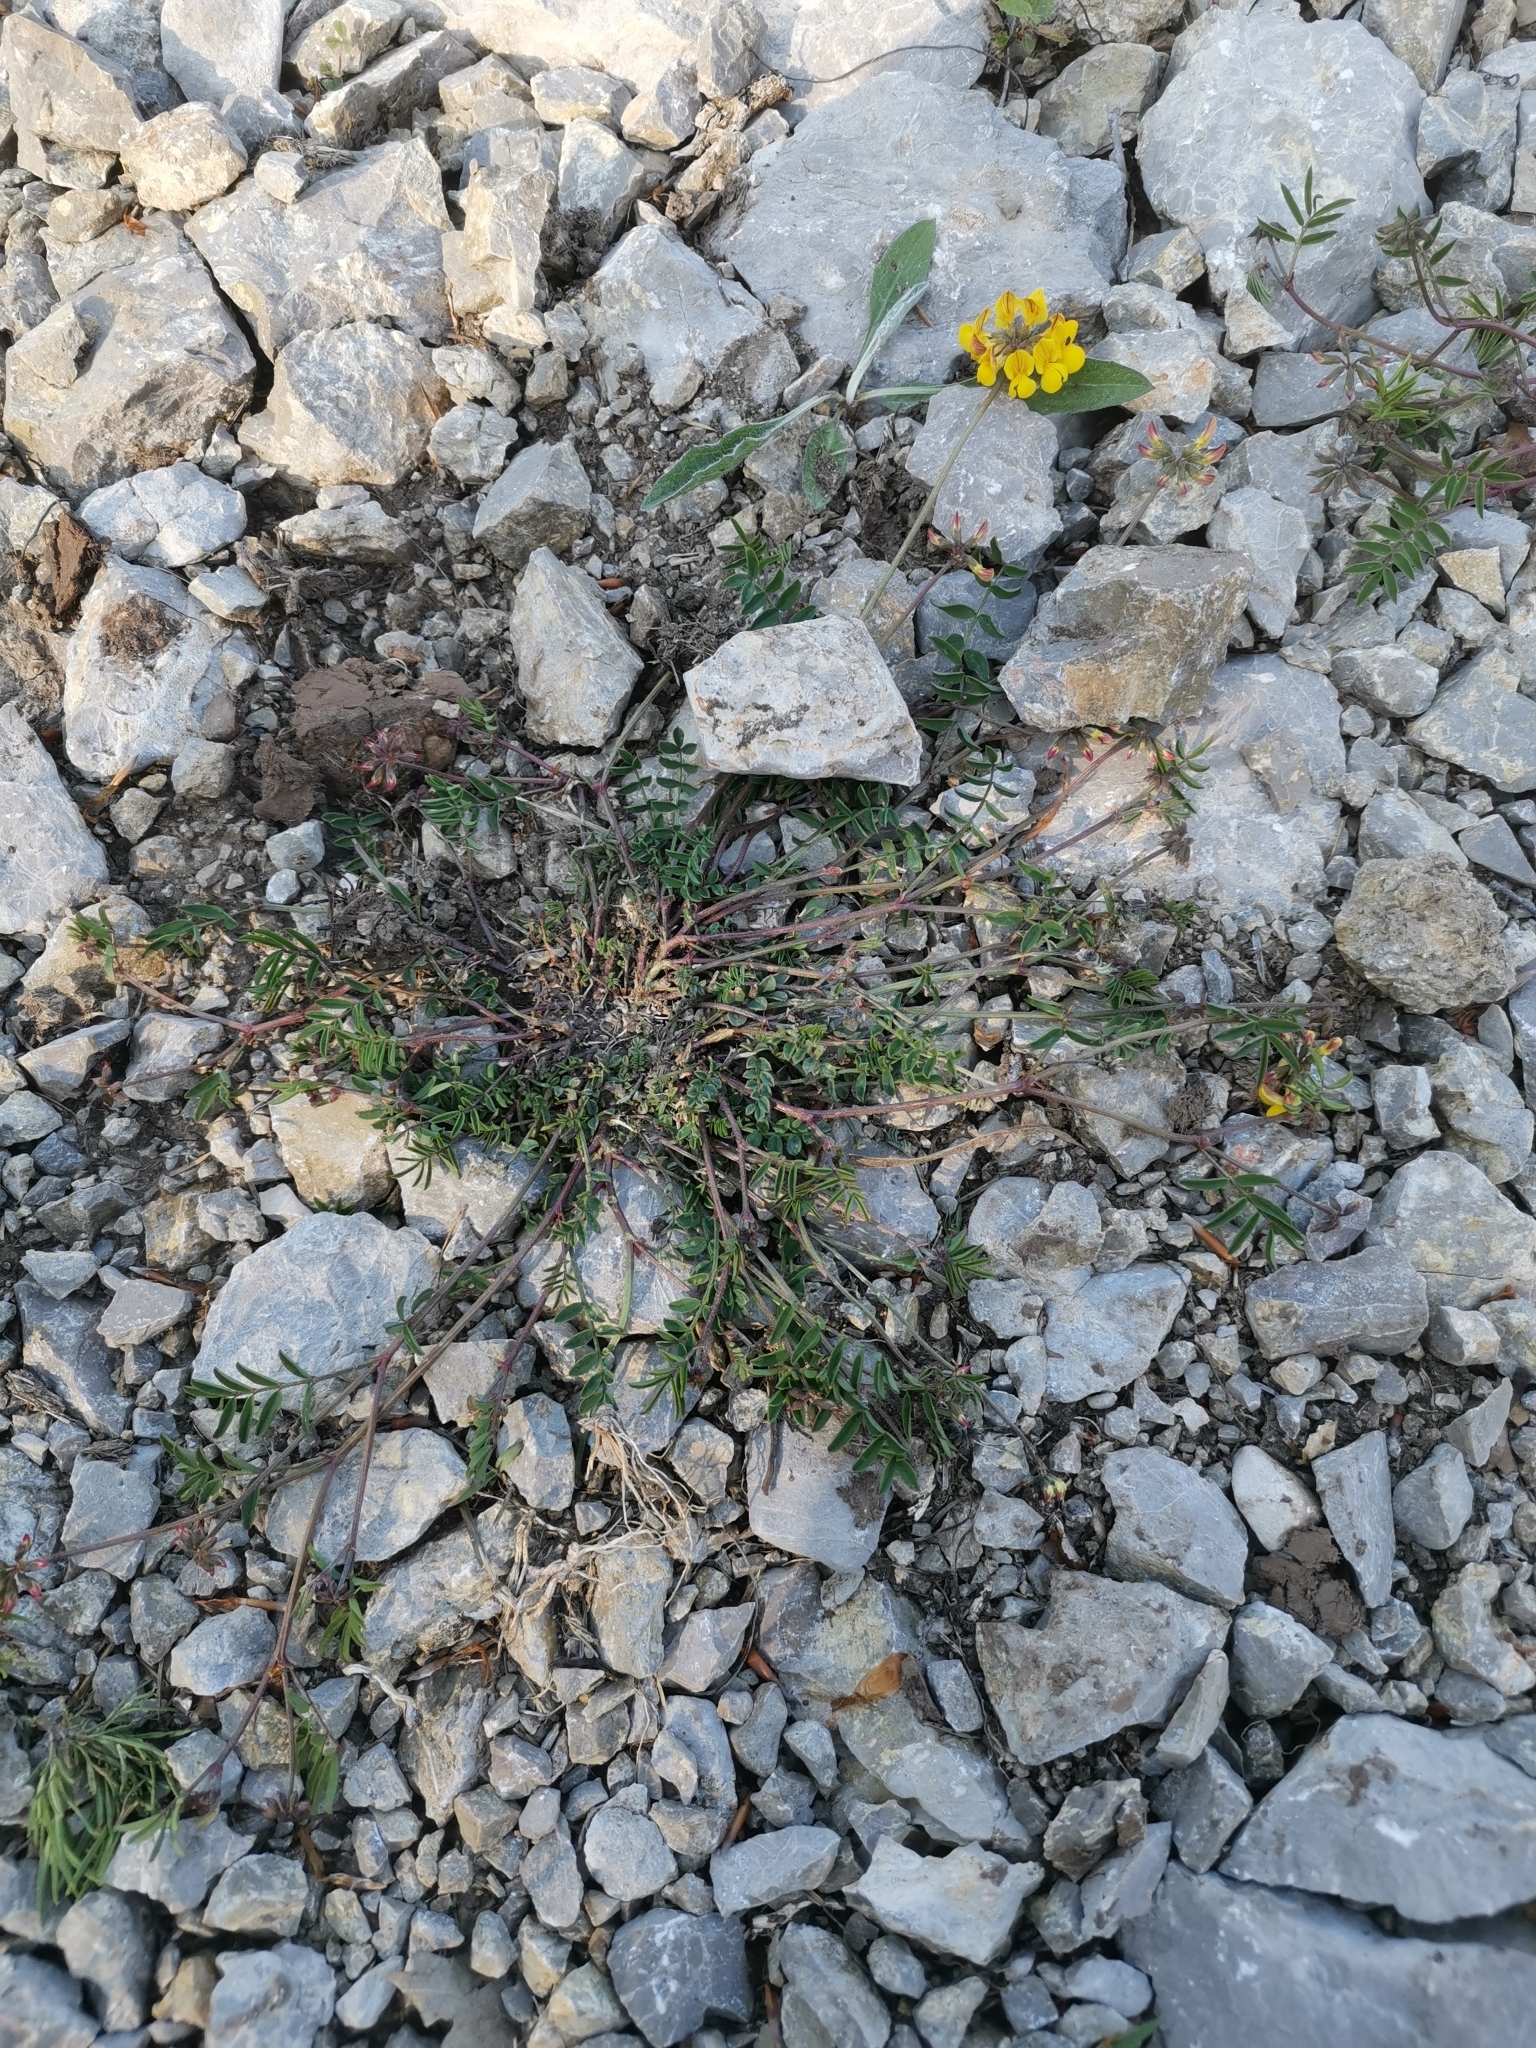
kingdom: Plantae
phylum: Tracheophyta
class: Magnoliopsida
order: Fabales
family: Fabaceae
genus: Hippocrepis
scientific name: Hippocrepis comosa
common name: Horseshoe vetch
